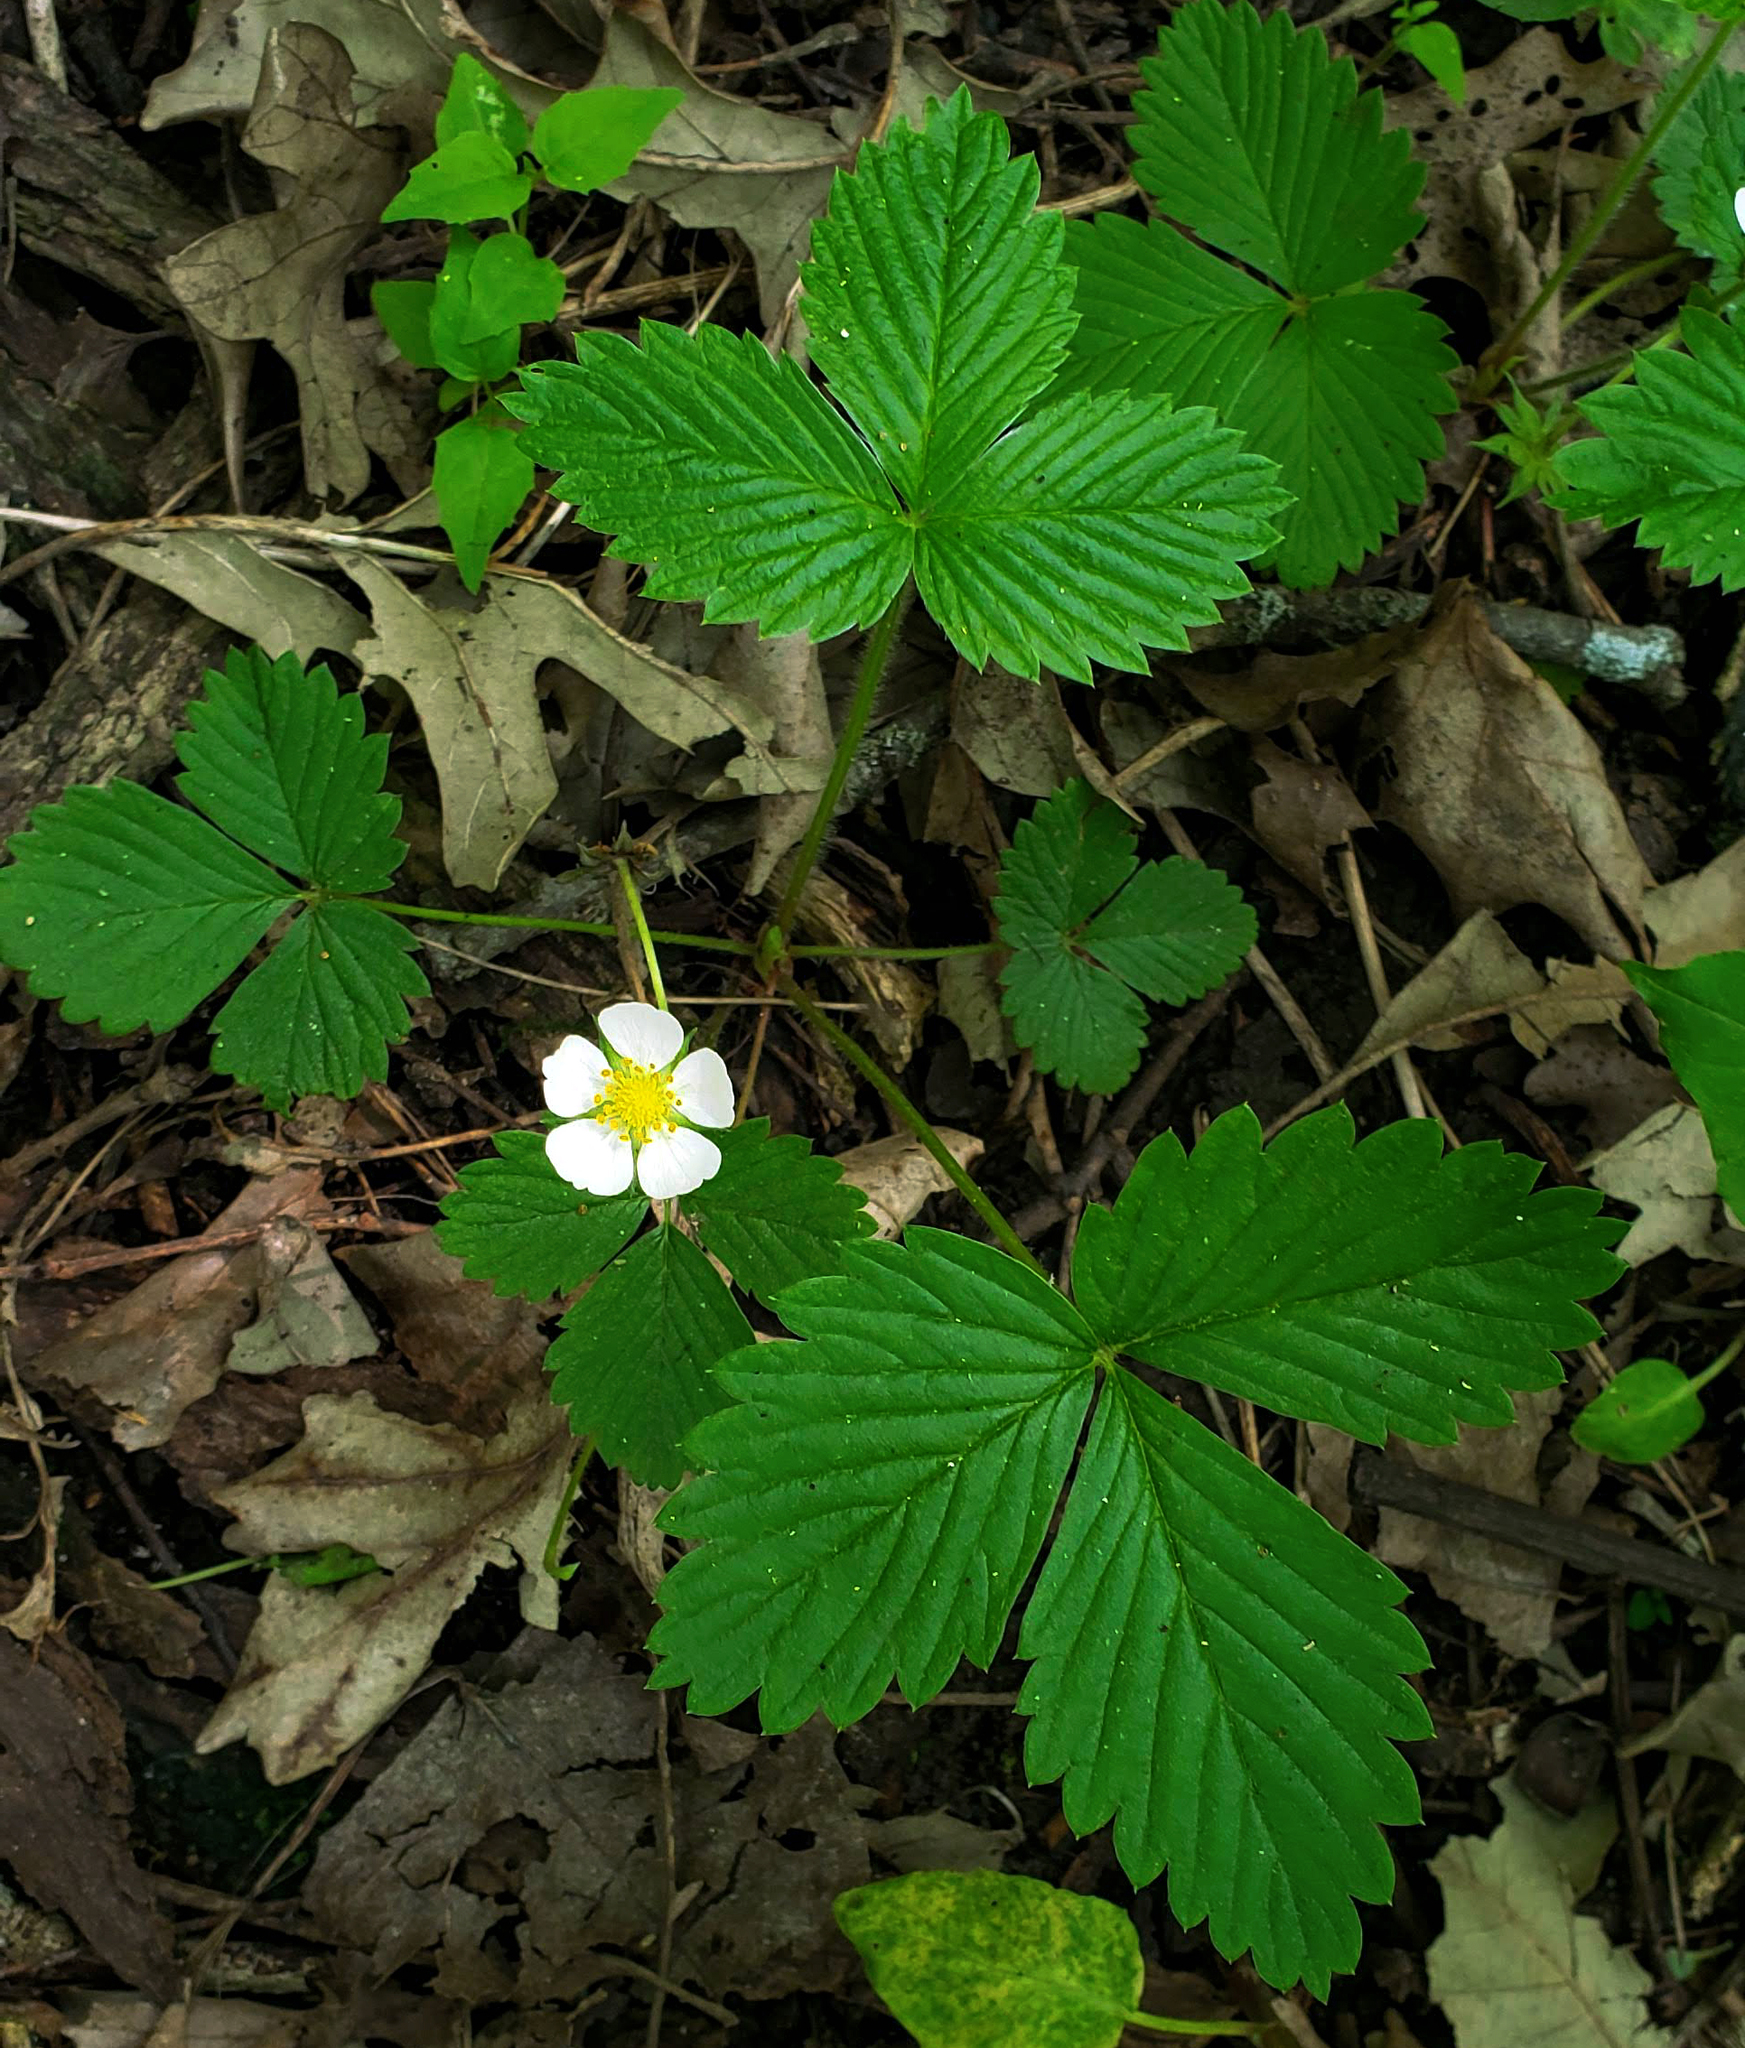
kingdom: Plantae
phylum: Tracheophyta
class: Magnoliopsida
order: Rosales
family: Rosaceae
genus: Fragaria
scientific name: Fragaria vesca
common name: Wild strawberry
